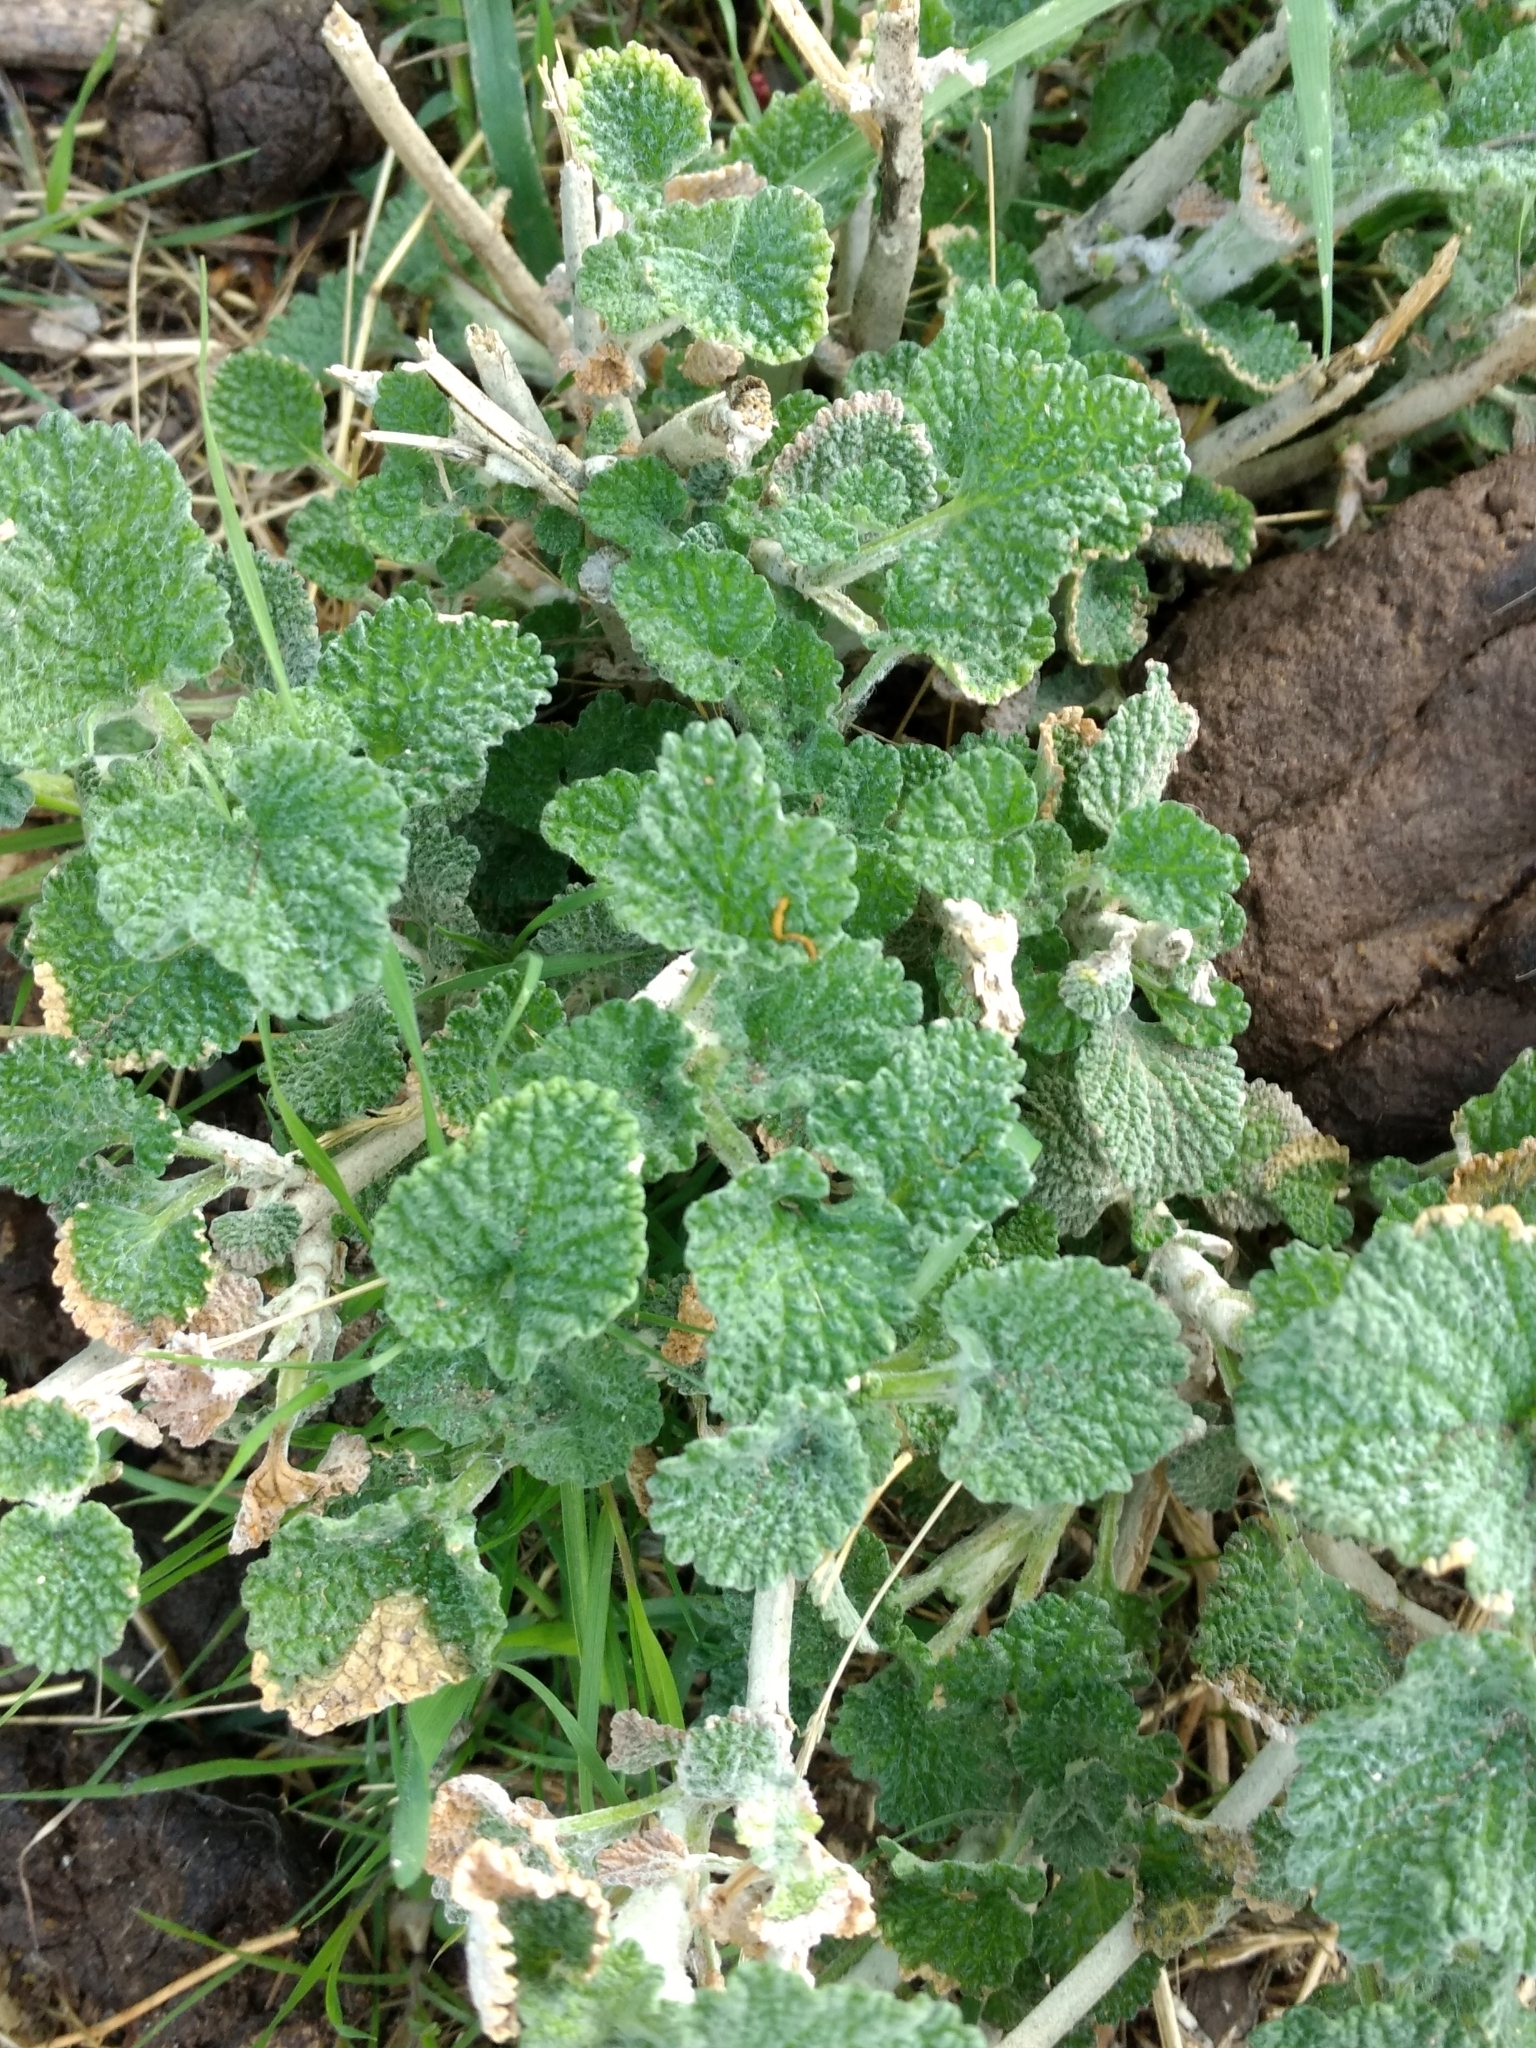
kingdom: Plantae
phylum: Tracheophyta
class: Magnoliopsida
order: Lamiales
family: Lamiaceae
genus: Marrubium
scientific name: Marrubium vulgare
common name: Horehound
